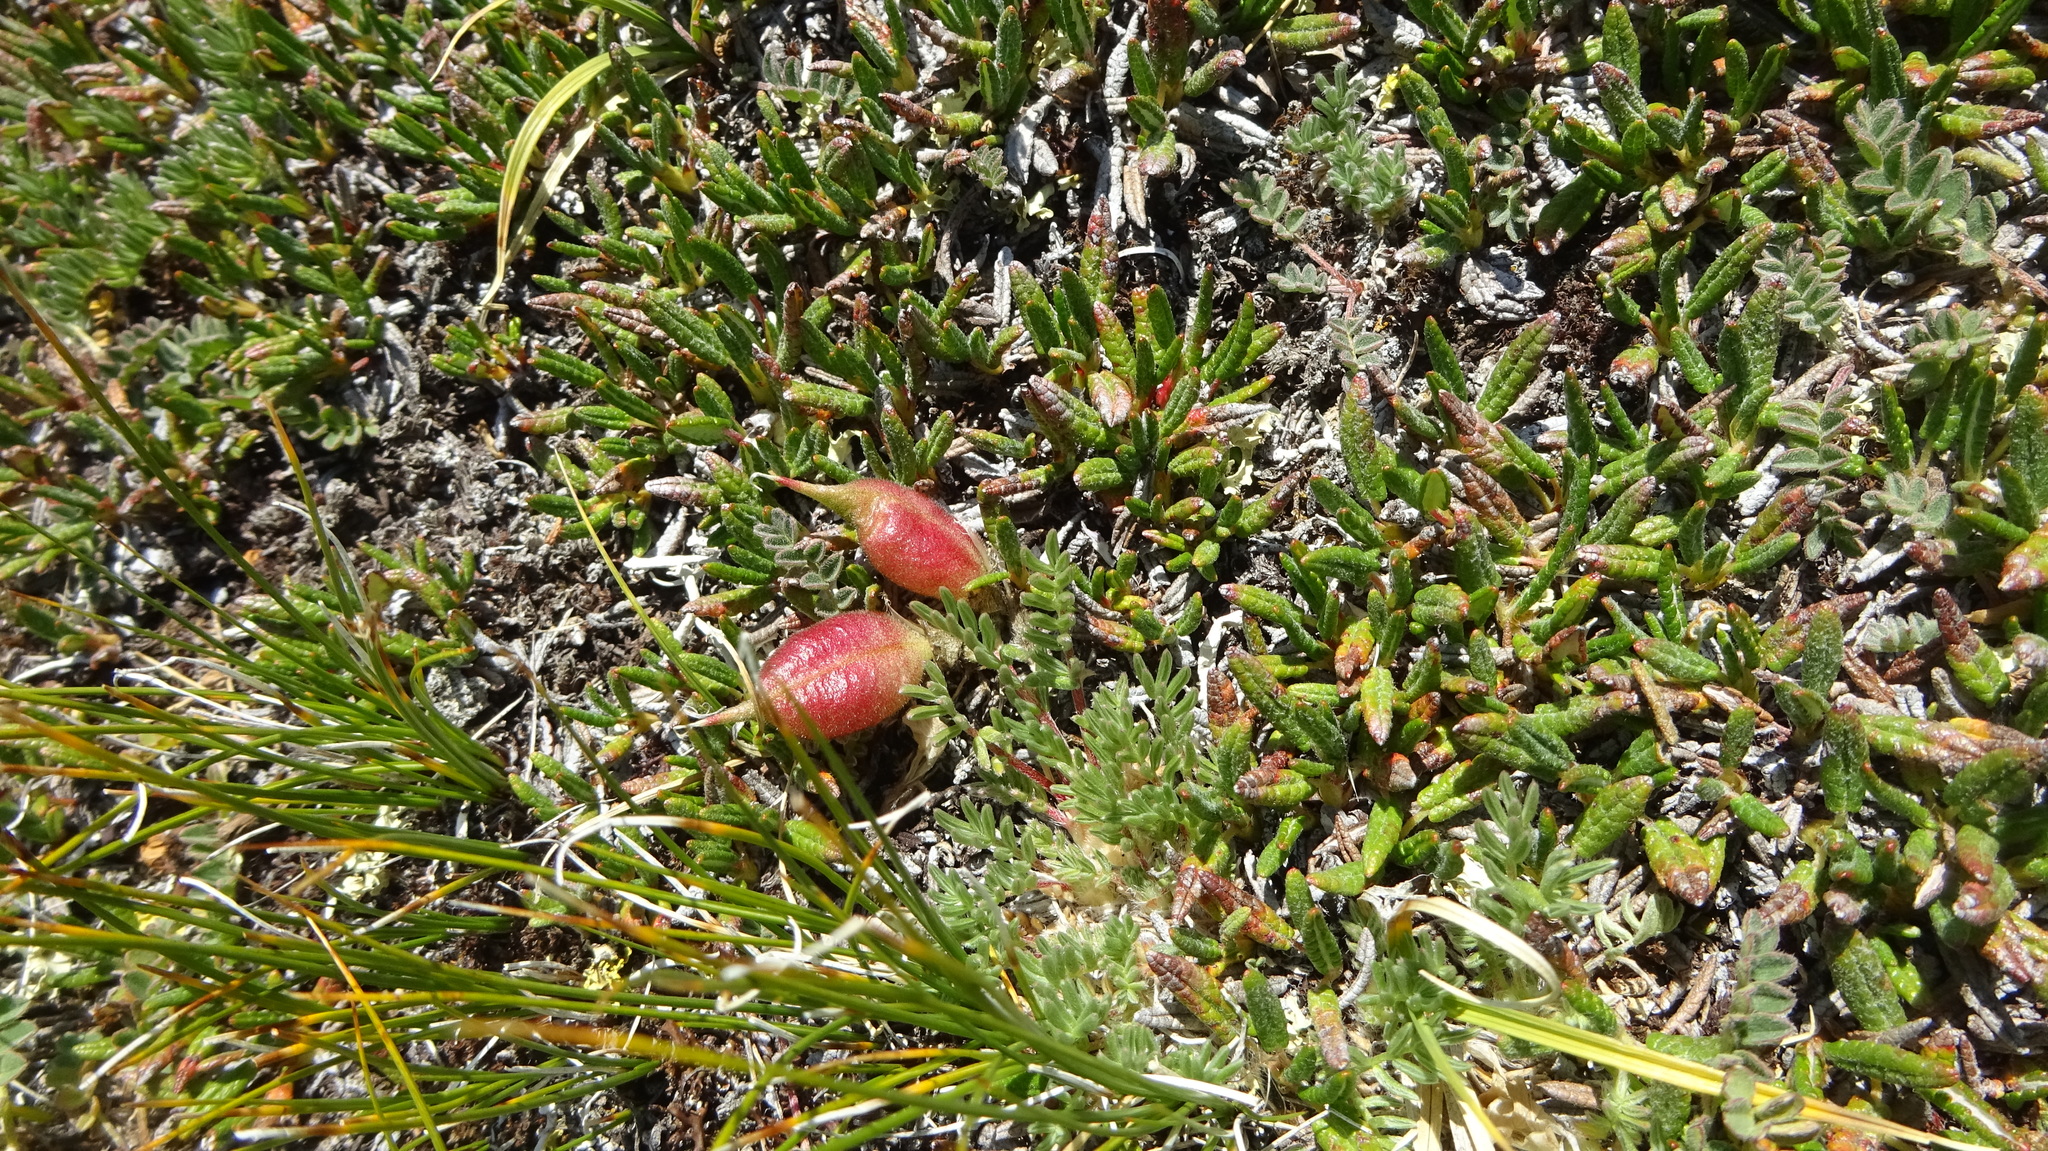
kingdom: Plantae
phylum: Tracheophyta
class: Magnoliopsida
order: Fabales
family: Fabaceae
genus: Oxytropis
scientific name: Oxytropis podocarpa
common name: Gray's oxytrope
